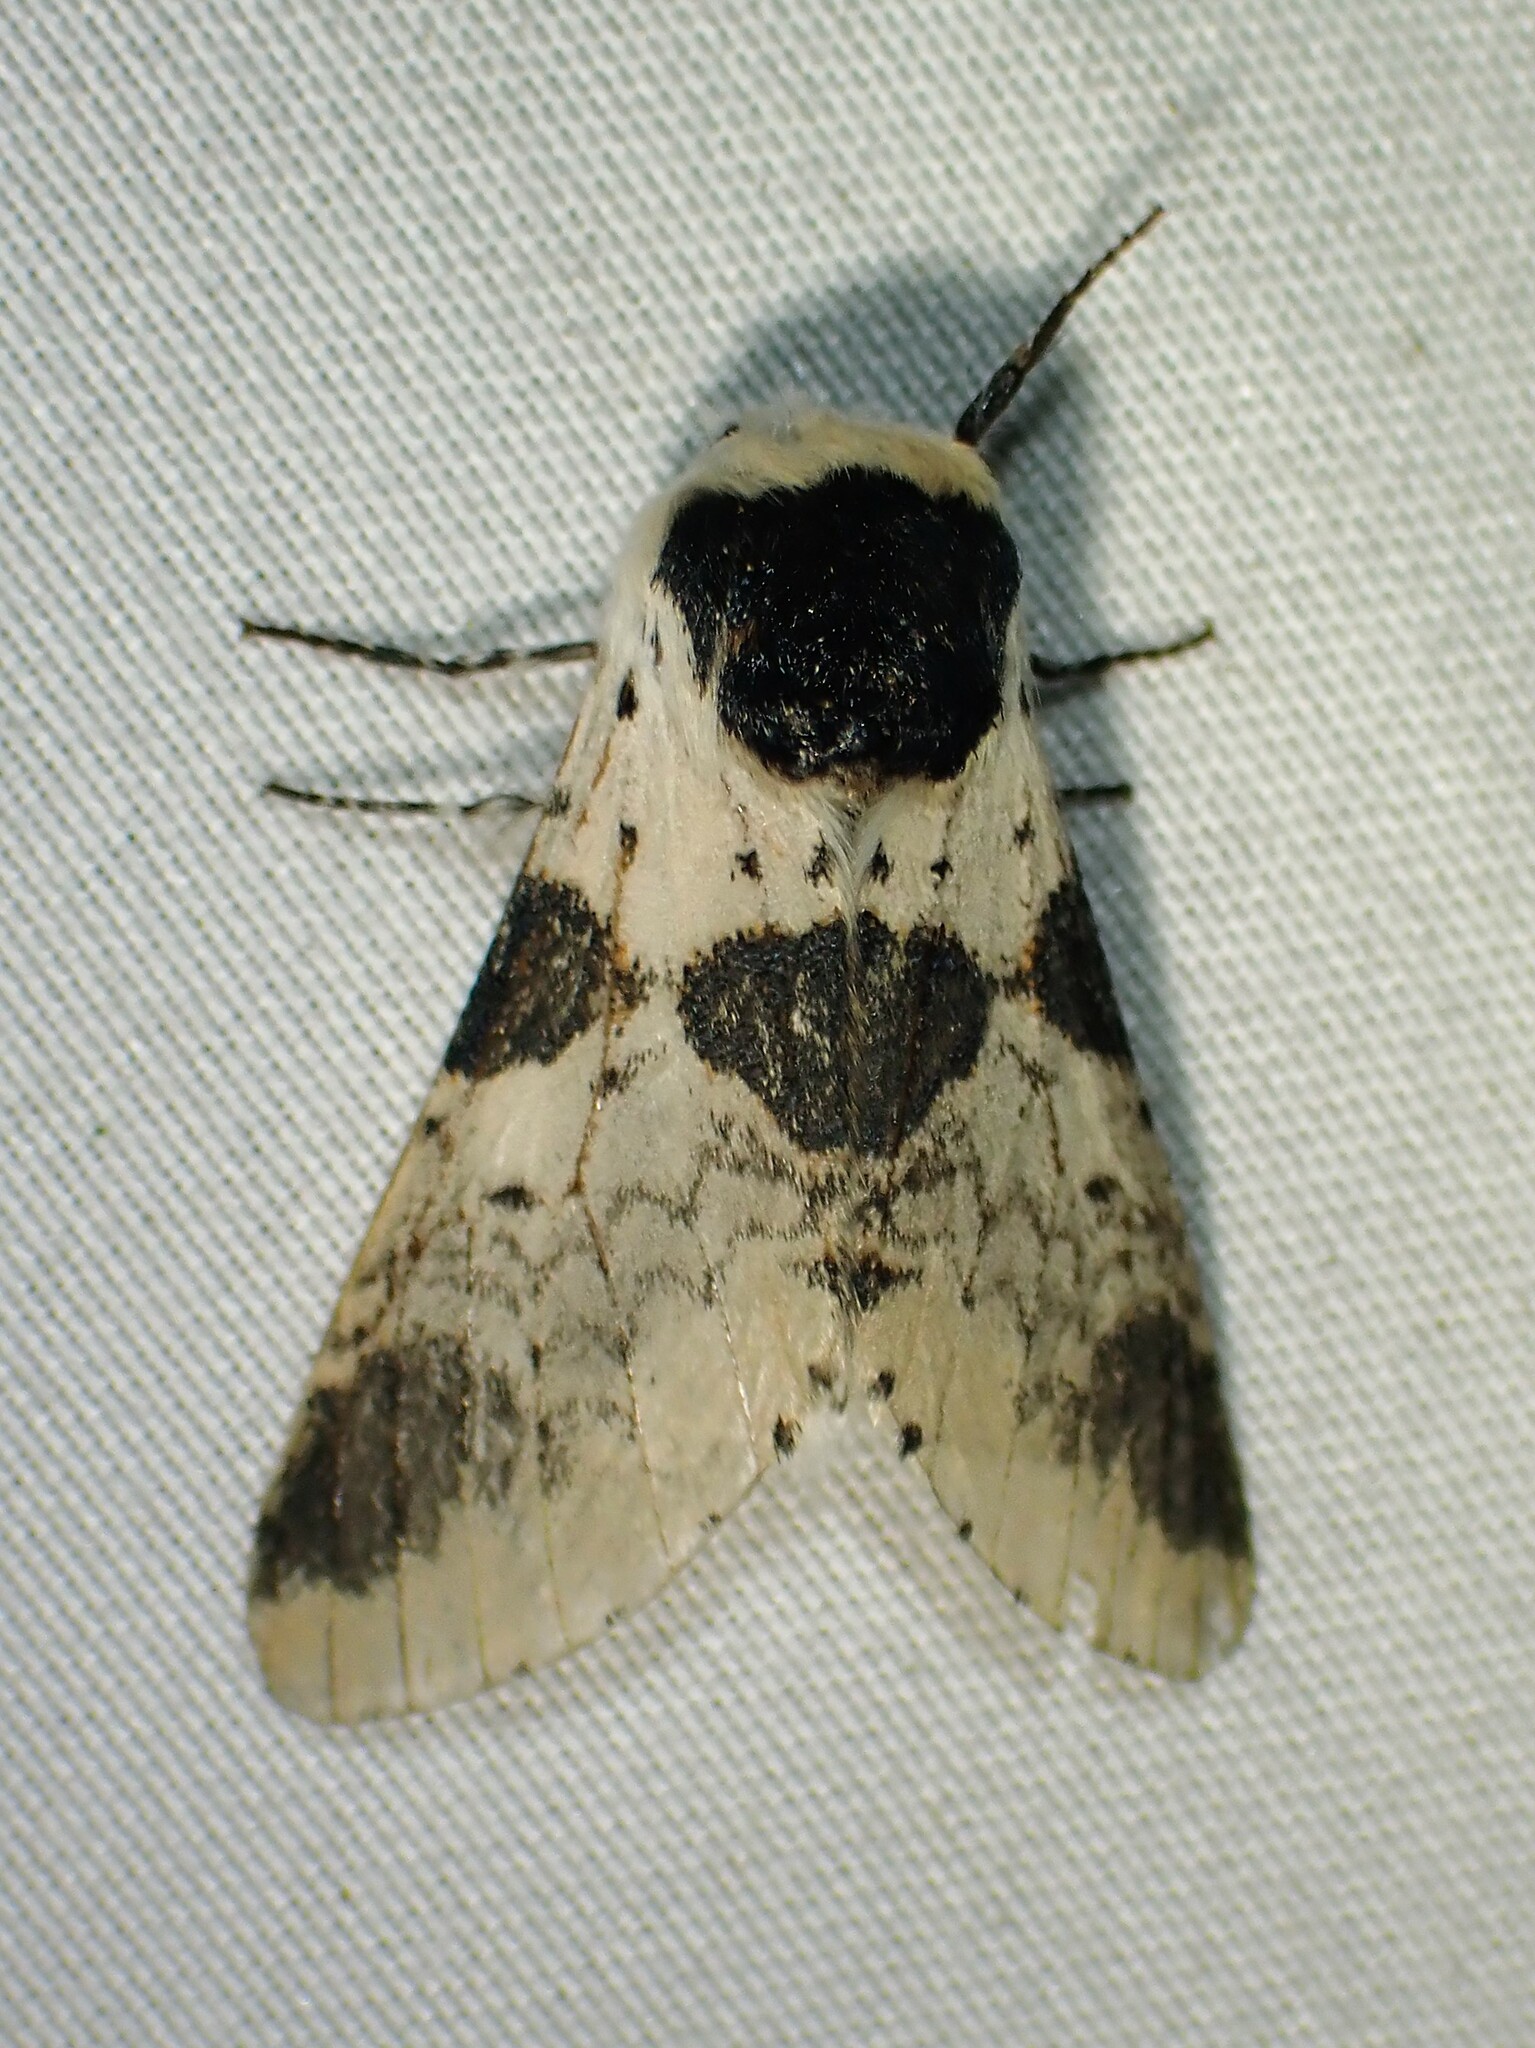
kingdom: Animalia
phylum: Arthropoda
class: Insecta
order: Lepidoptera
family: Notodontidae
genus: Furcula
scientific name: Furcula modesta
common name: Modest furcula moth
